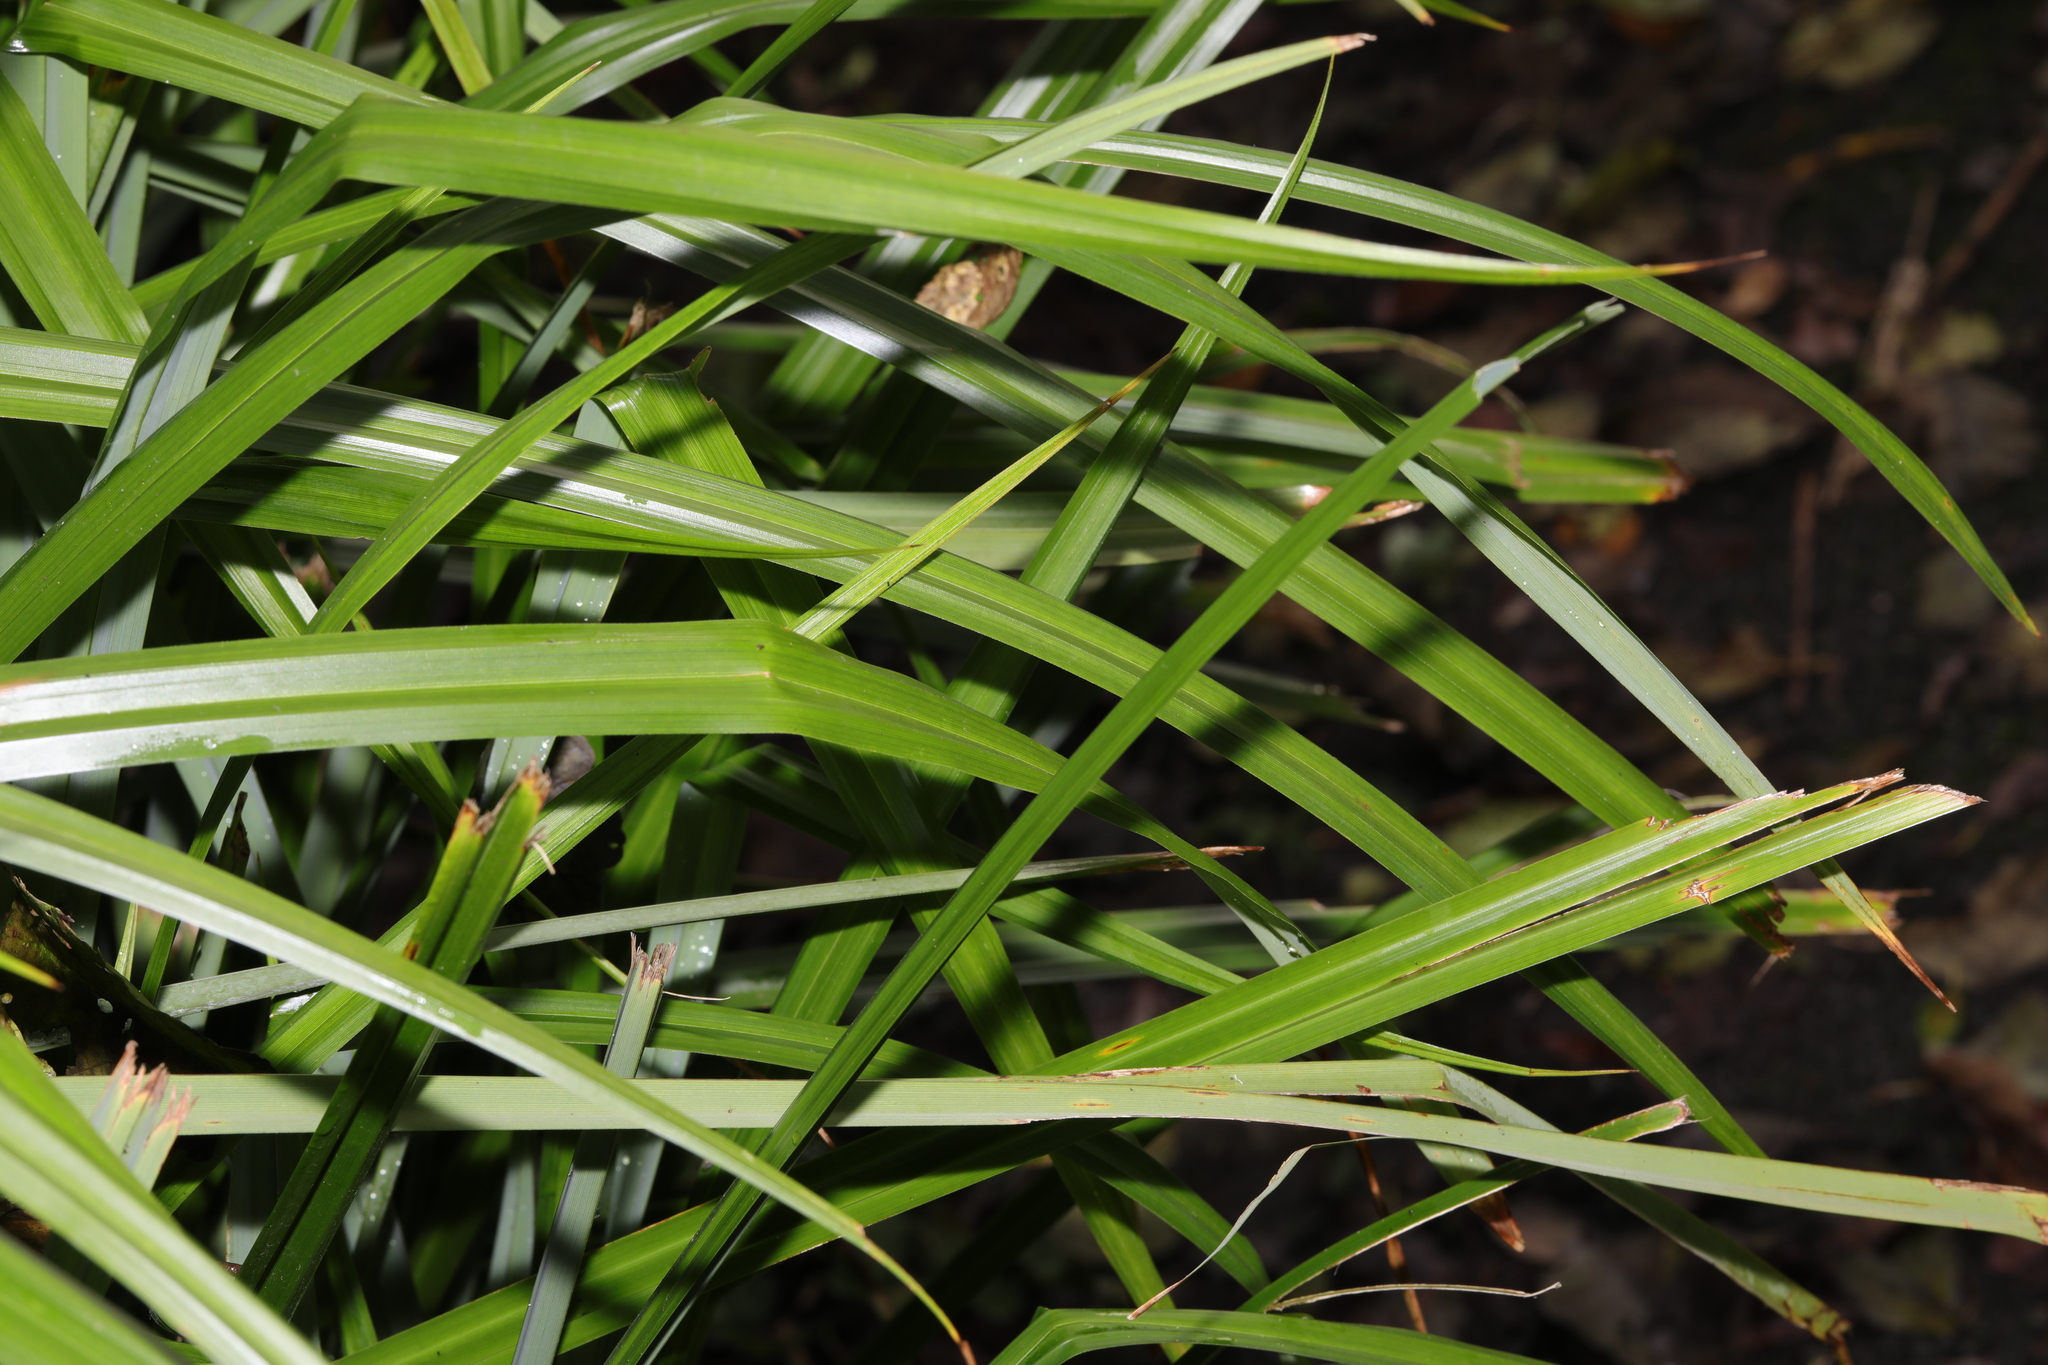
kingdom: Plantae
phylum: Tracheophyta
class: Liliopsida
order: Poales
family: Cyperaceae
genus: Carex
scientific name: Carex pendula
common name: Pendulous sedge
